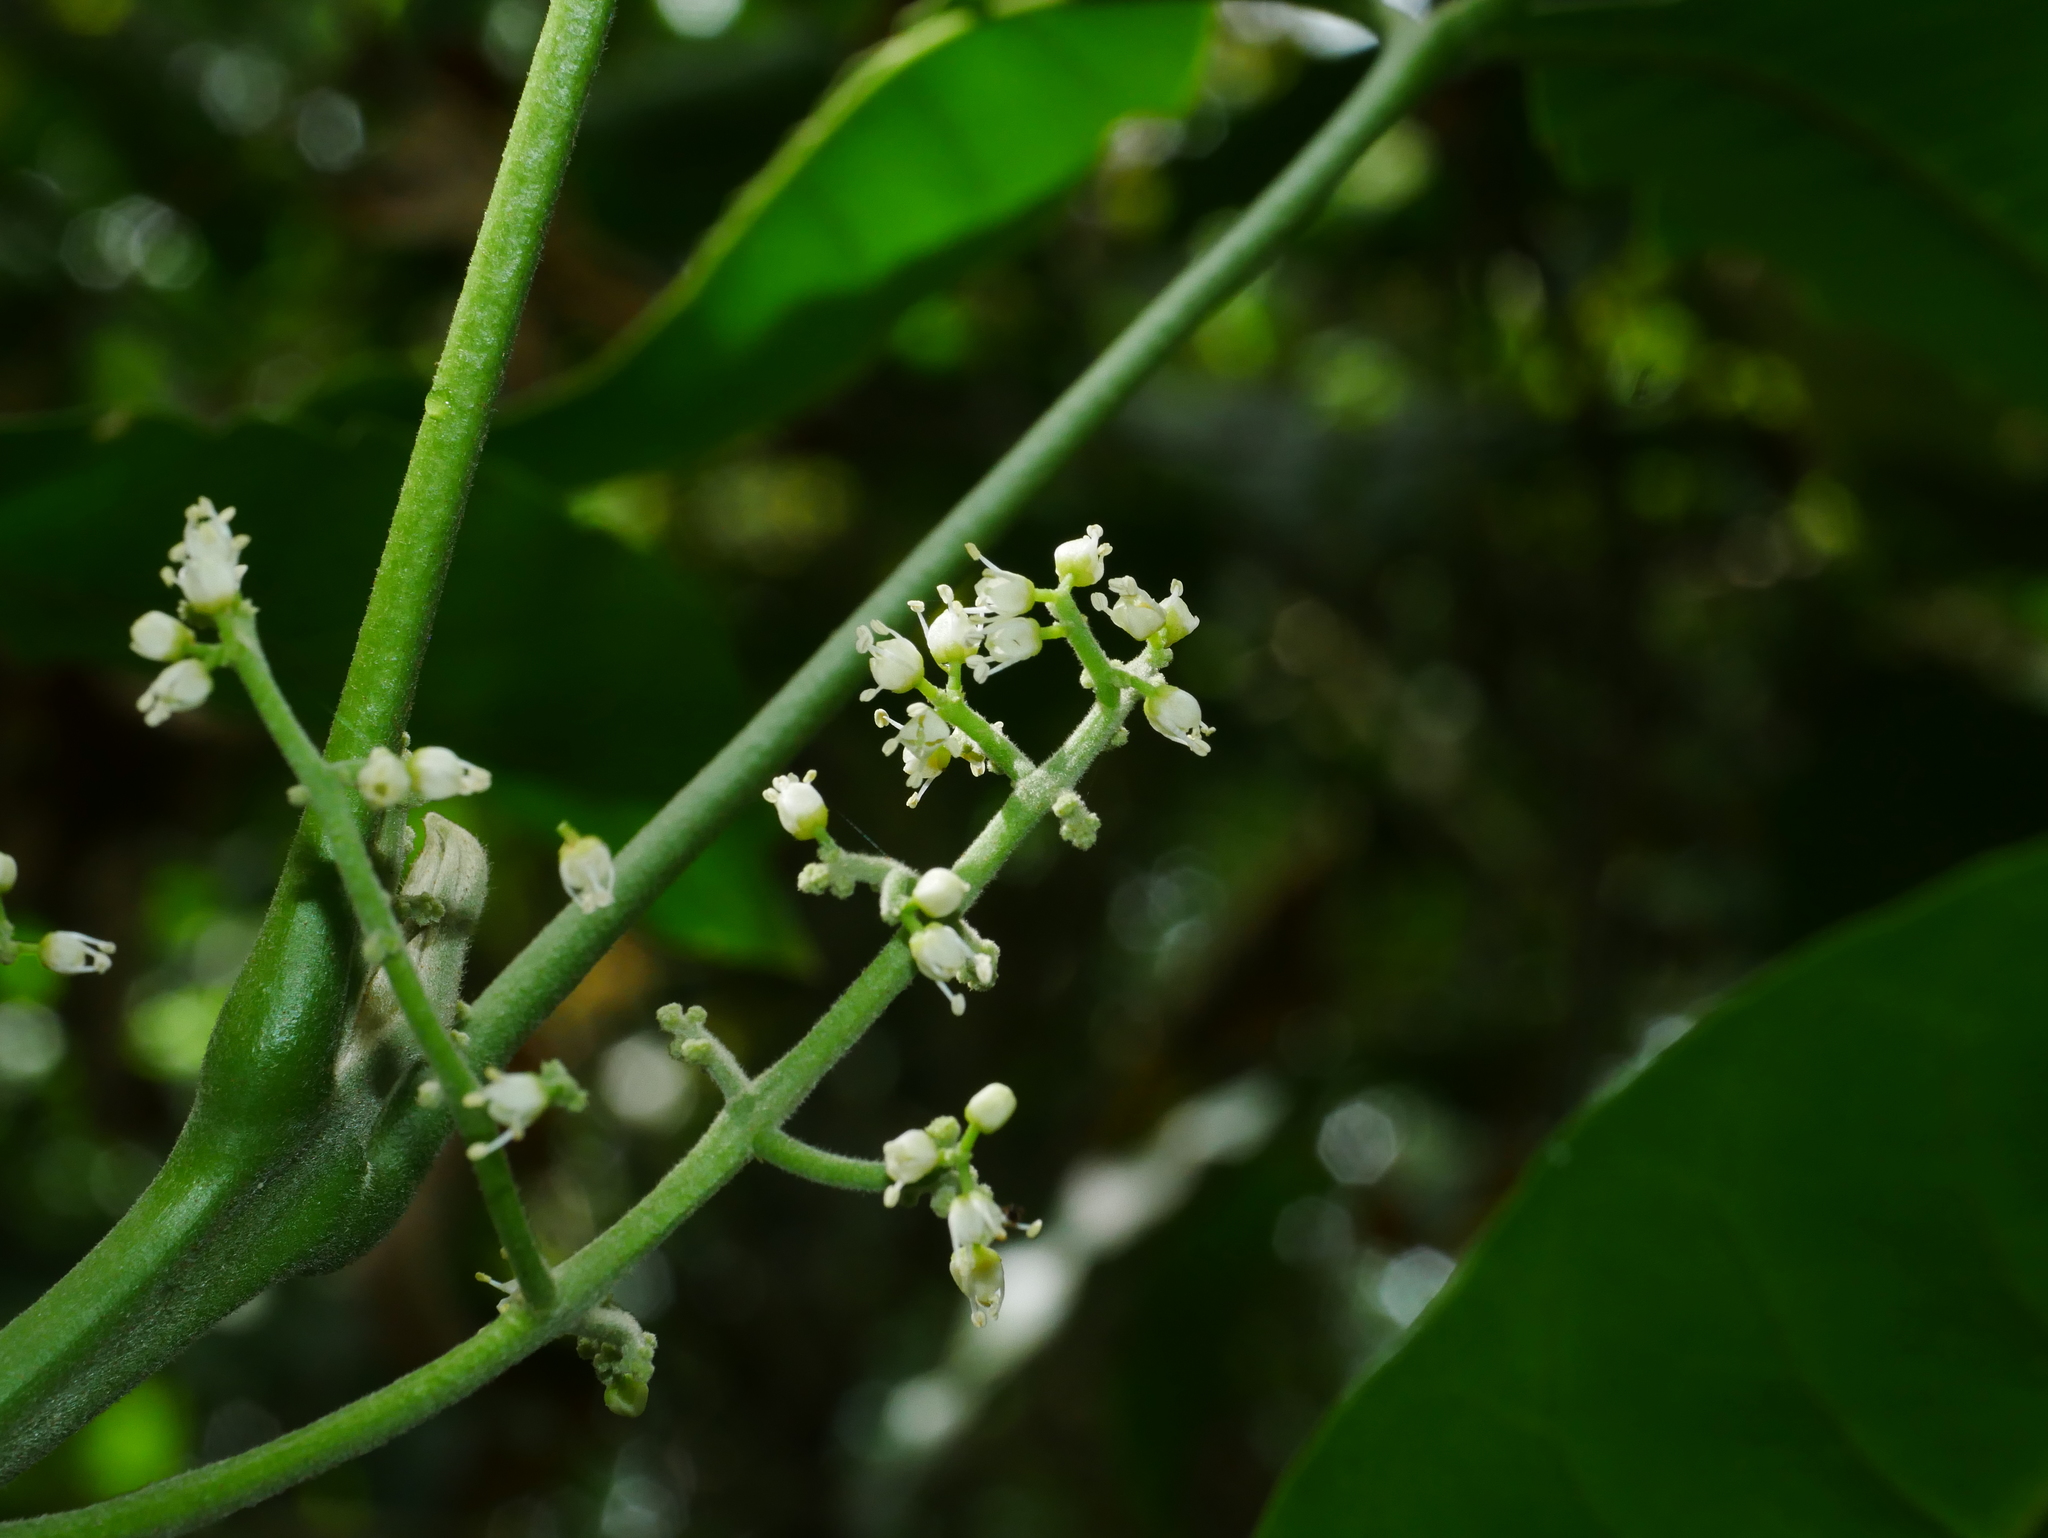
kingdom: Plantae
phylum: Tracheophyta
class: Magnoliopsida
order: Sapindales
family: Rutaceae
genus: Melicope
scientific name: Melicope semecarpifolia
